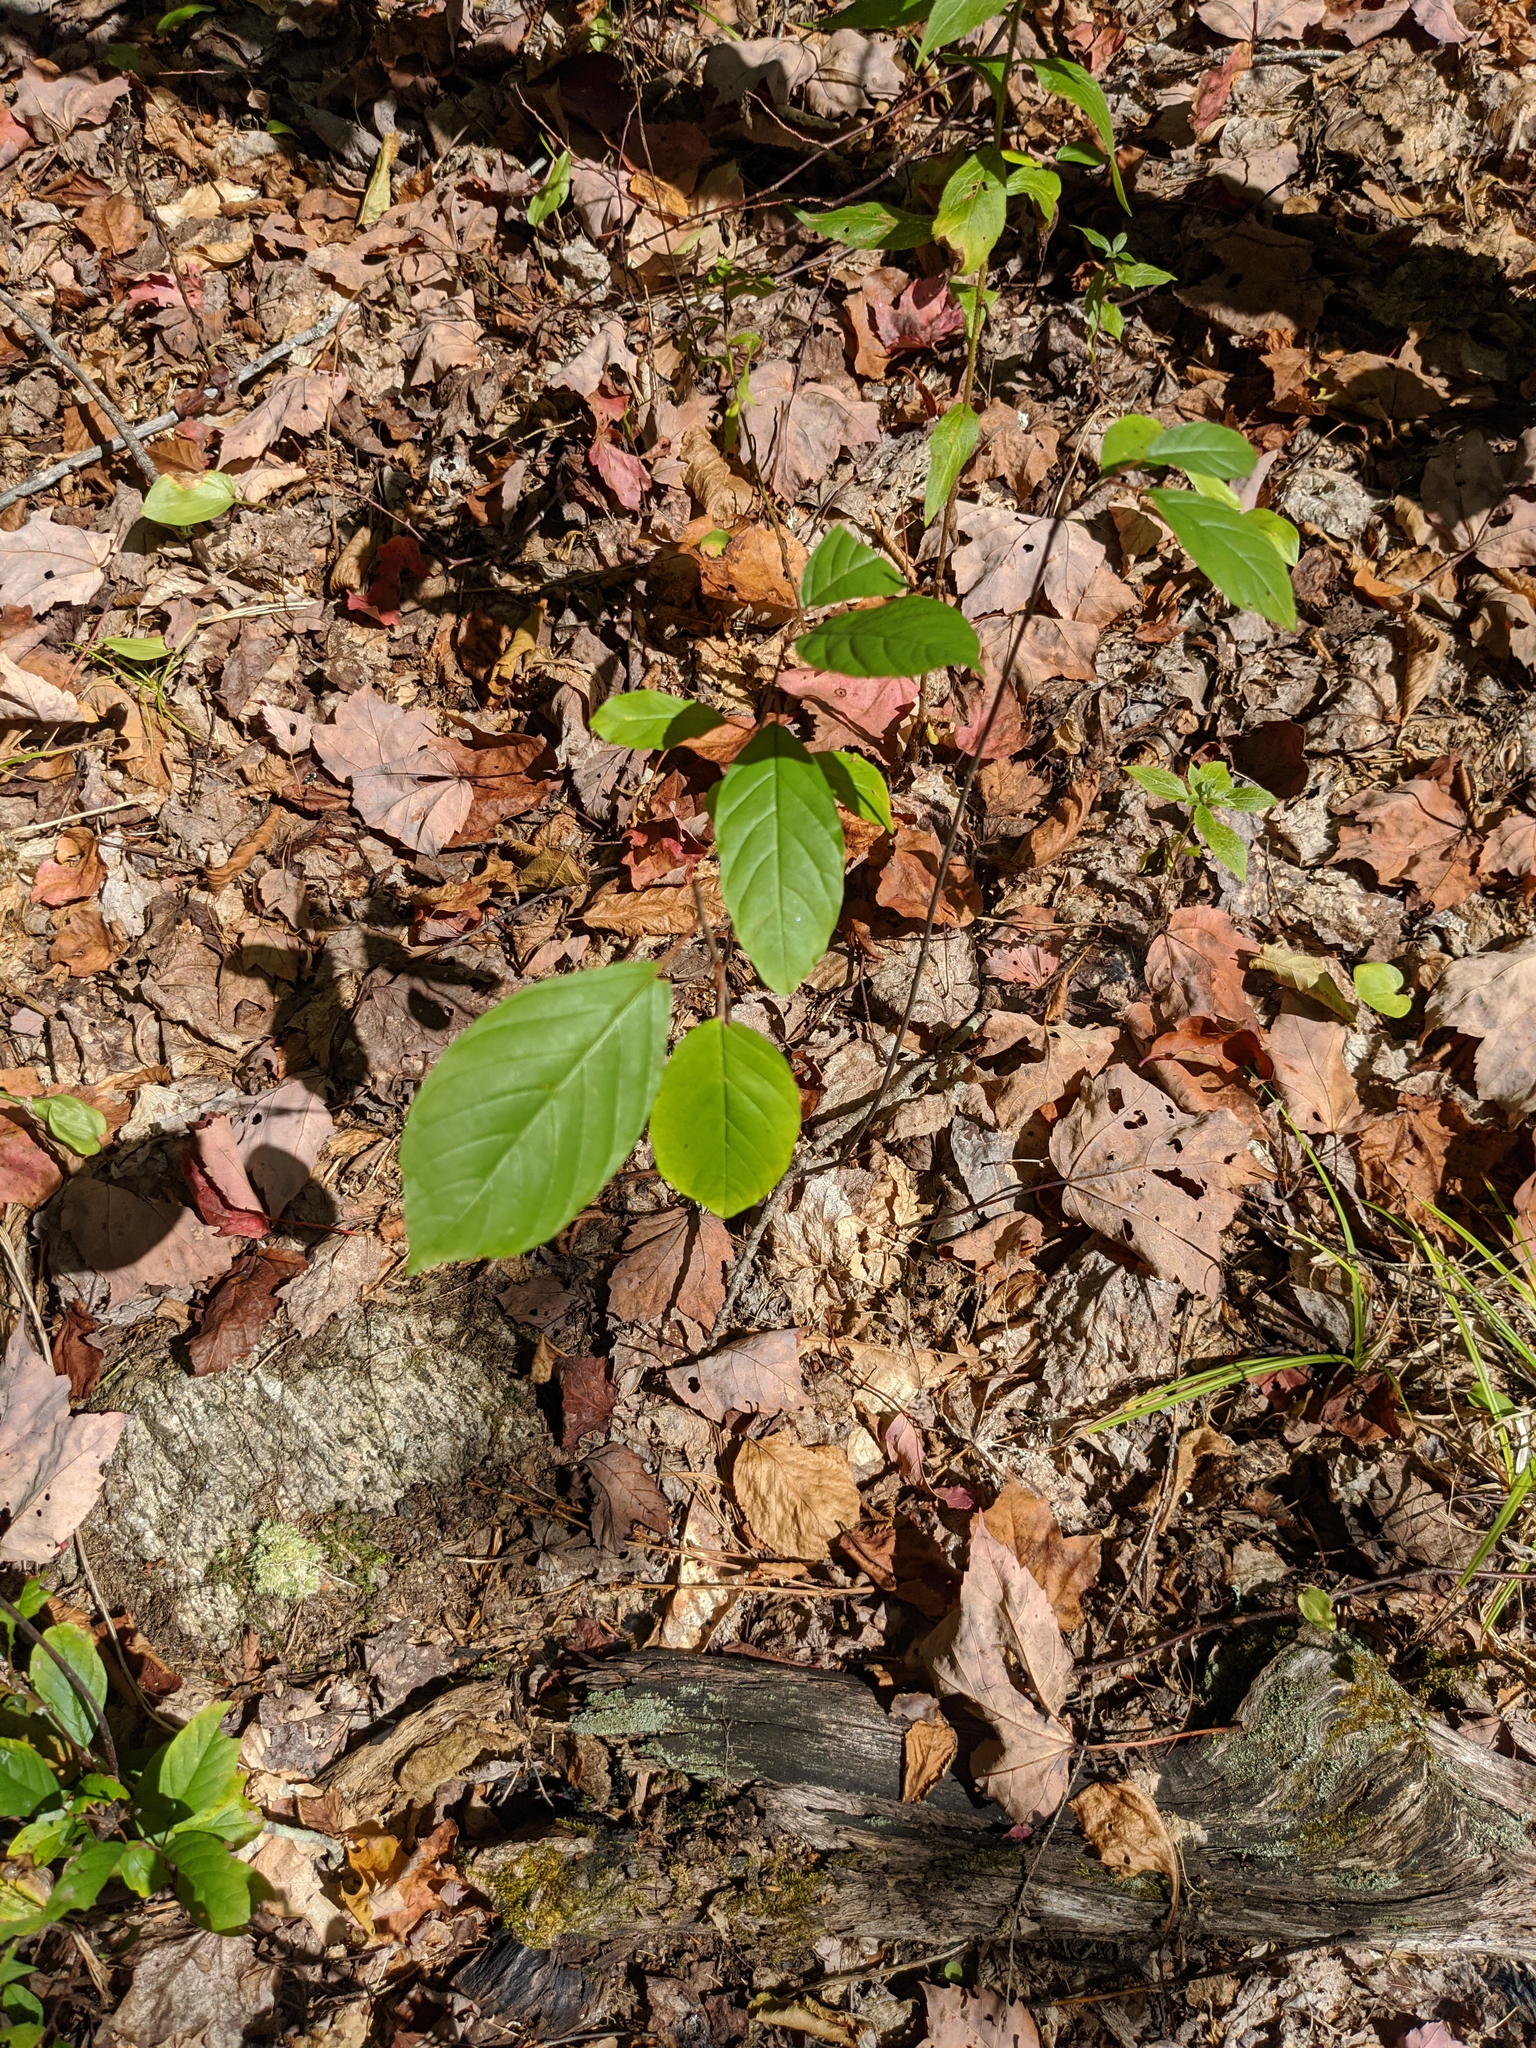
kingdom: Plantae
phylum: Tracheophyta
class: Magnoliopsida
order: Rosales
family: Rhamnaceae
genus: Frangula
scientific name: Frangula alnus
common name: Alder buckthorn
